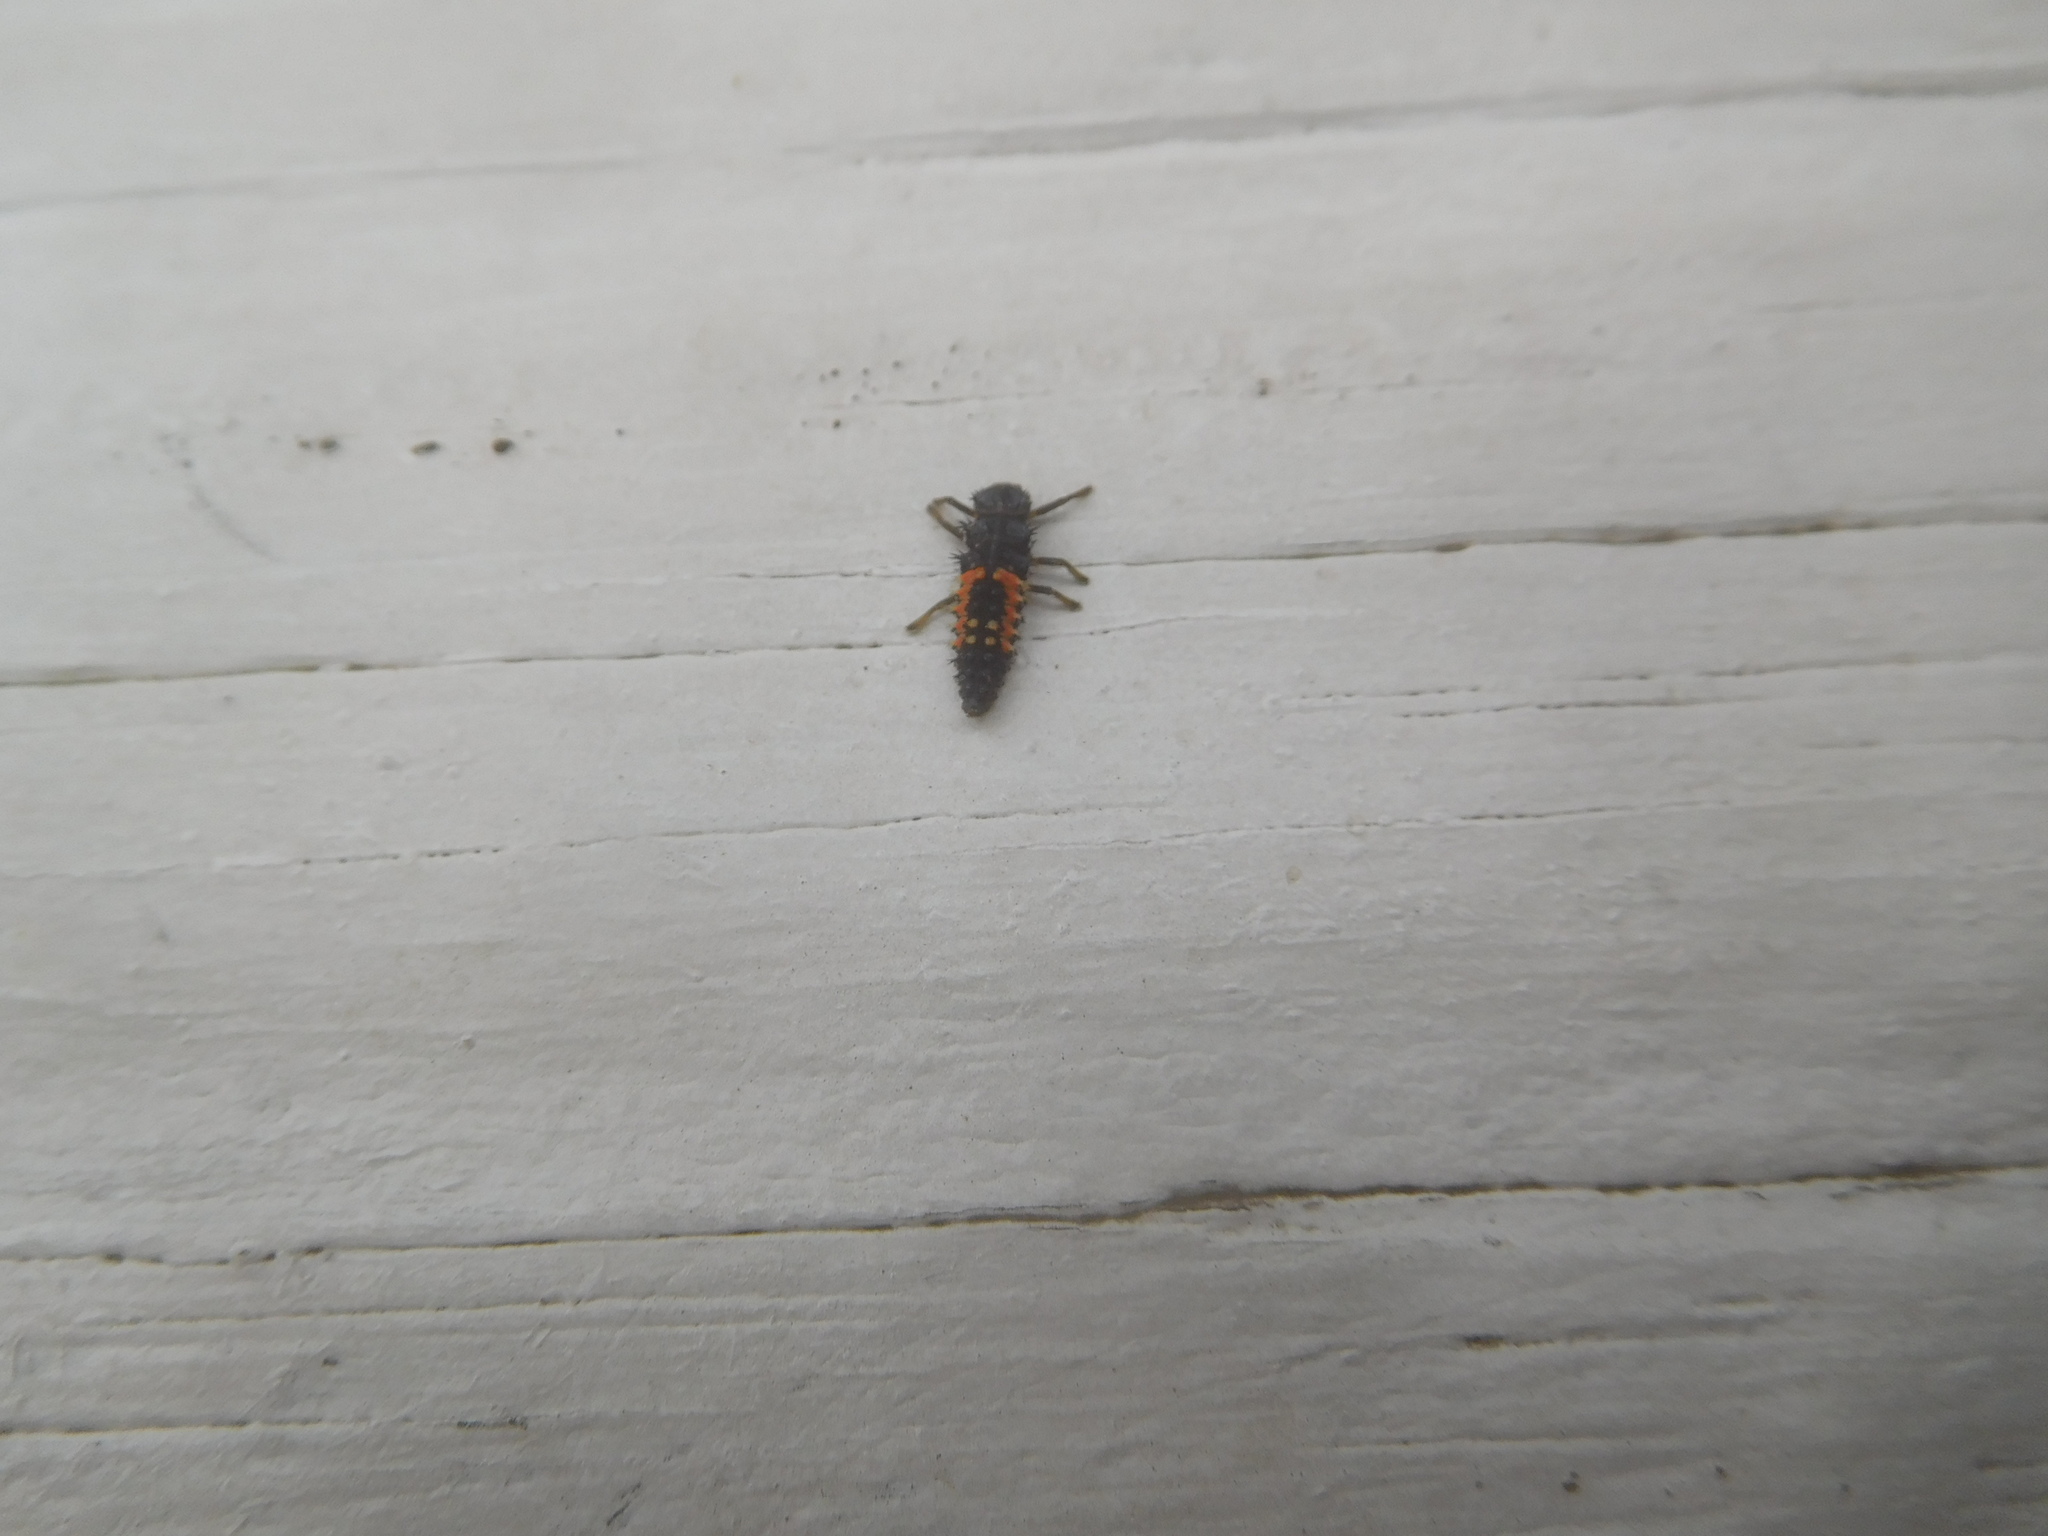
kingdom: Animalia
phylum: Arthropoda
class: Insecta
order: Coleoptera
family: Coccinellidae
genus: Harmonia
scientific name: Harmonia axyridis
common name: Harlequin ladybird
